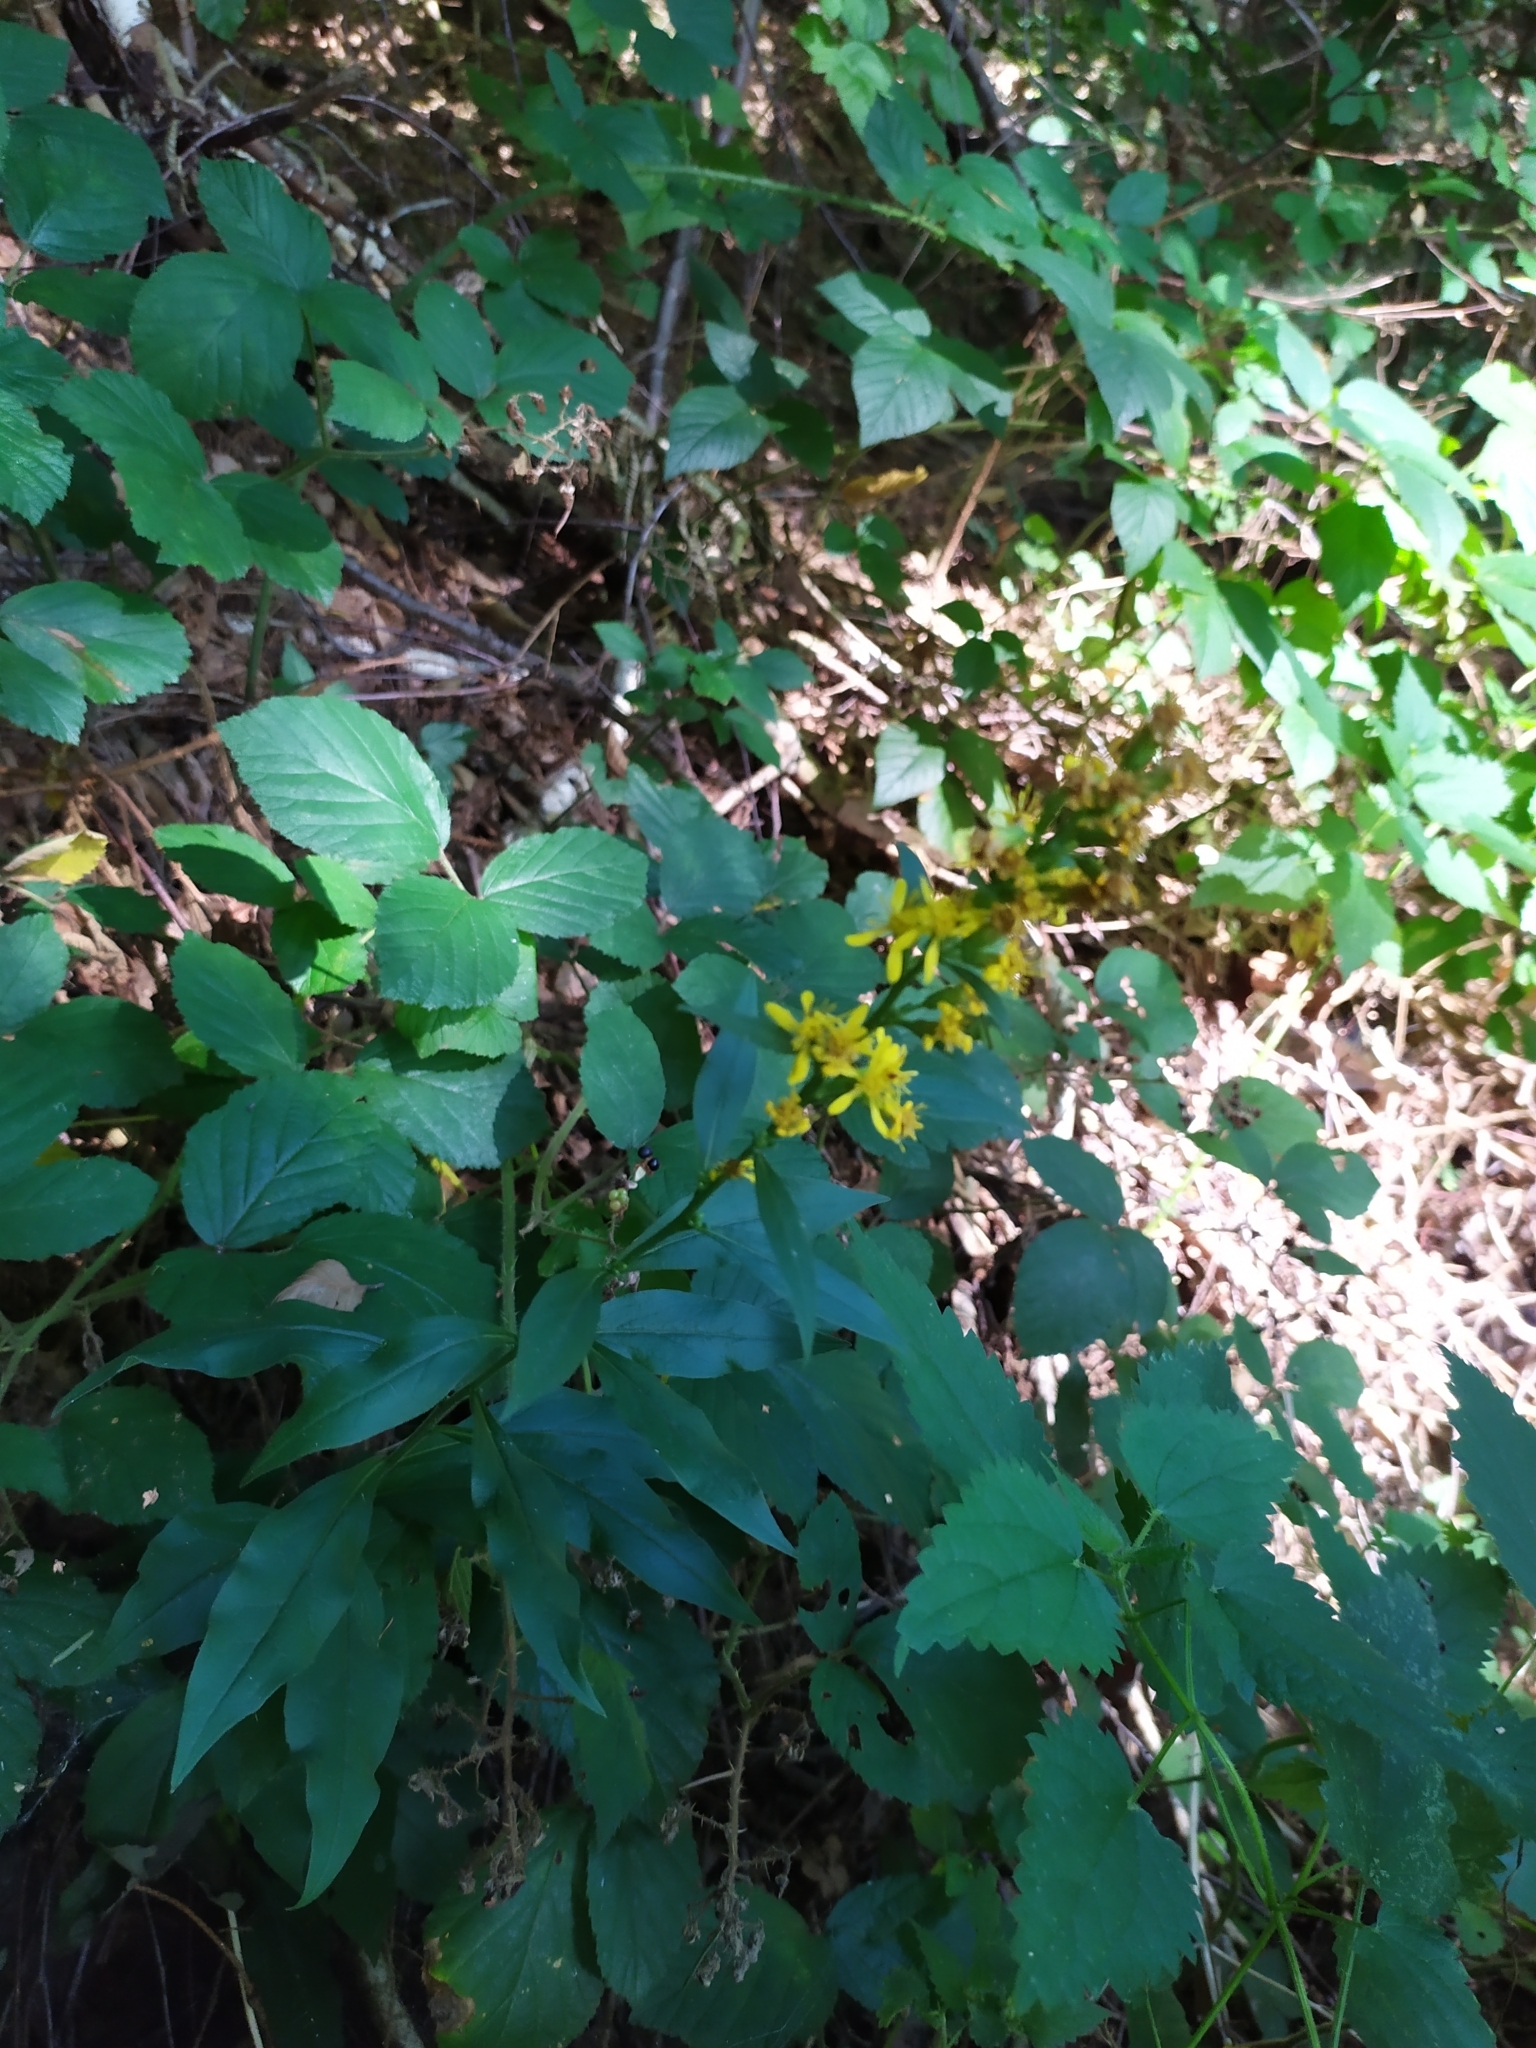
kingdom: Plantae
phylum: Tracheophyta
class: Magnoliopsida
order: Asterales
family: Asteraceae
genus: Solidago
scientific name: Solidago virgaurea
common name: Goldenrod
